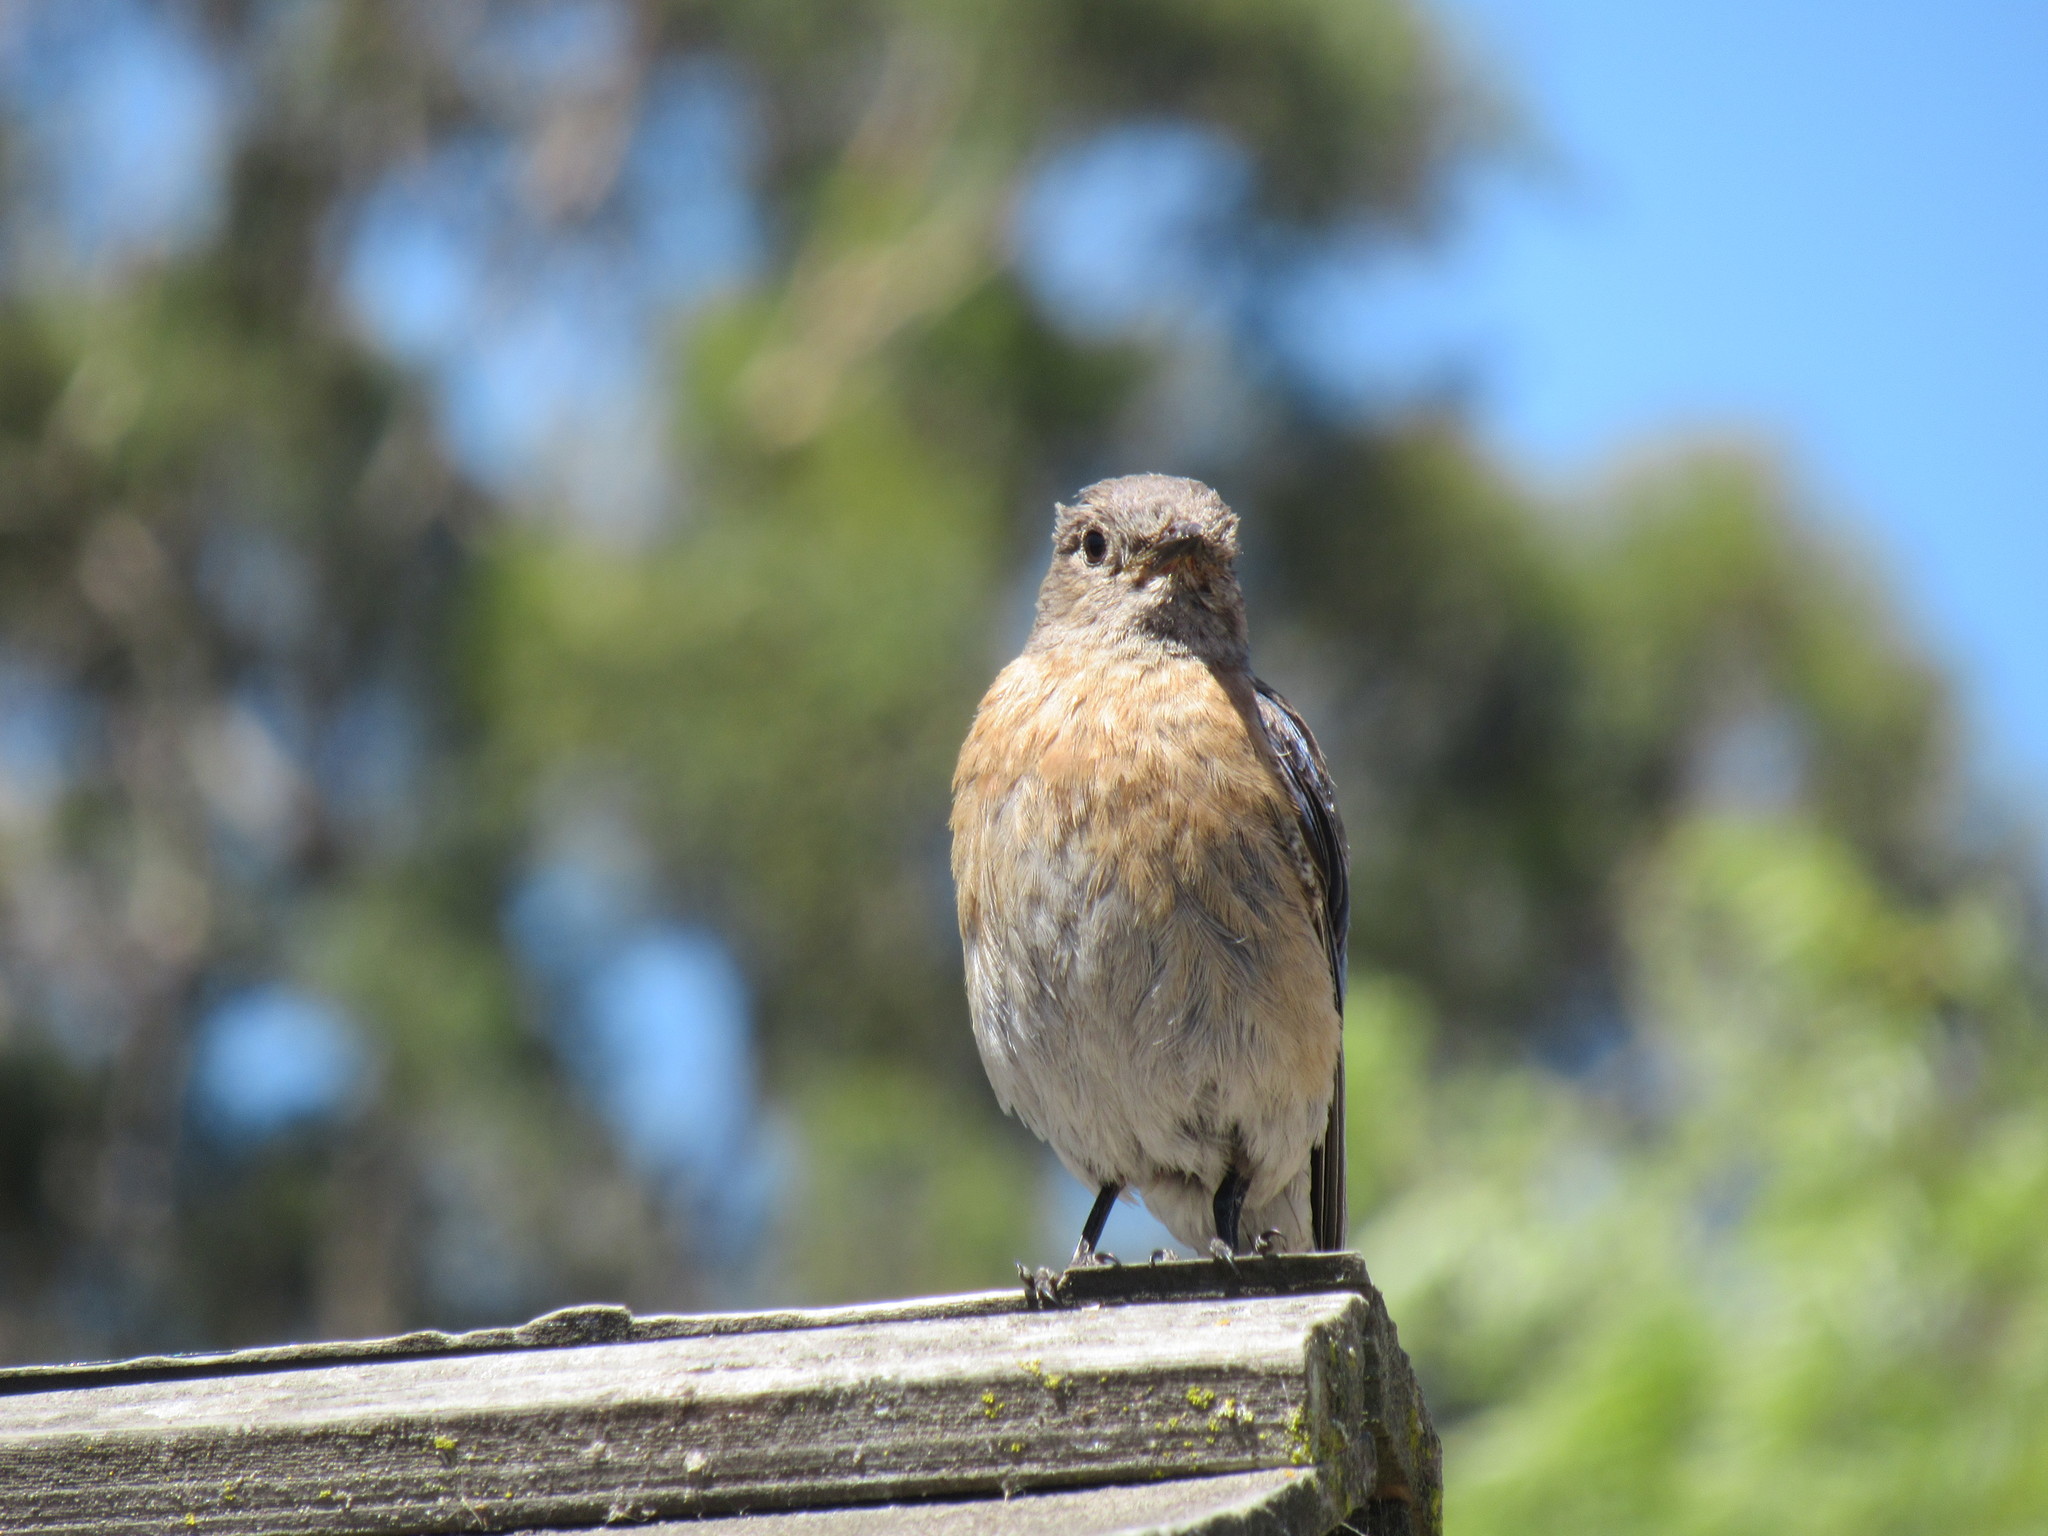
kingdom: Animalia
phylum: Chordata
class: Aves
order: Passeriformes
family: Turdidae
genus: Sialia
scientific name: Sialia mexicana
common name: Western bluebird
